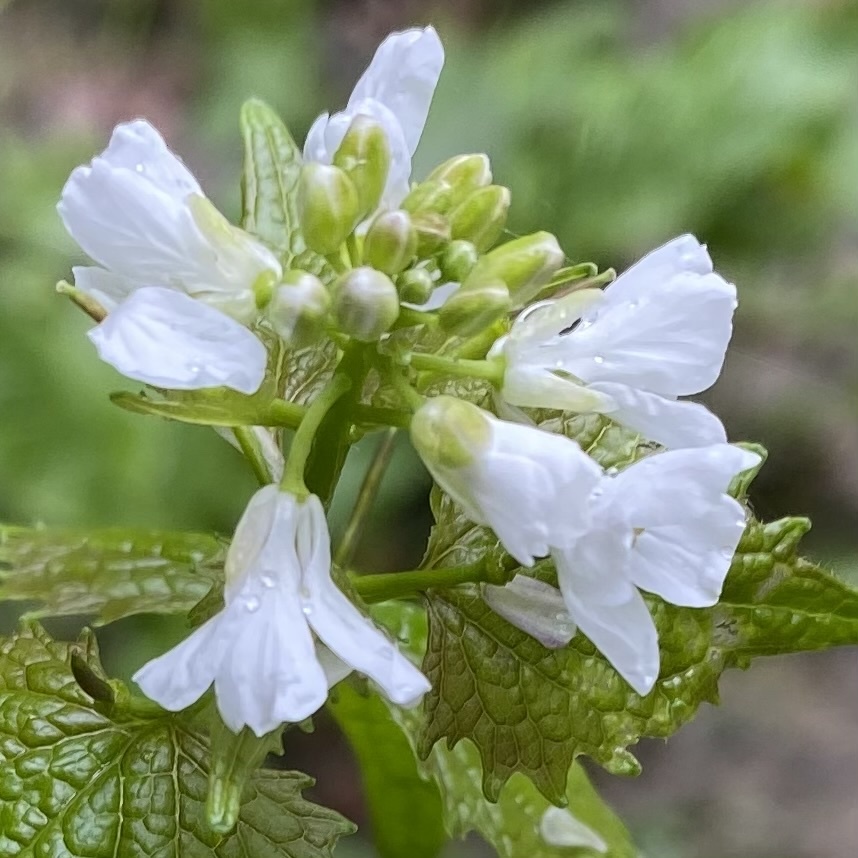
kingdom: Plantae
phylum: Tracheophyta
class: Magnoliopsida
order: Brassicales
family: Brassicaceae
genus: Alliaria
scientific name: Alliaria petiolata
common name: Garlic mustard
